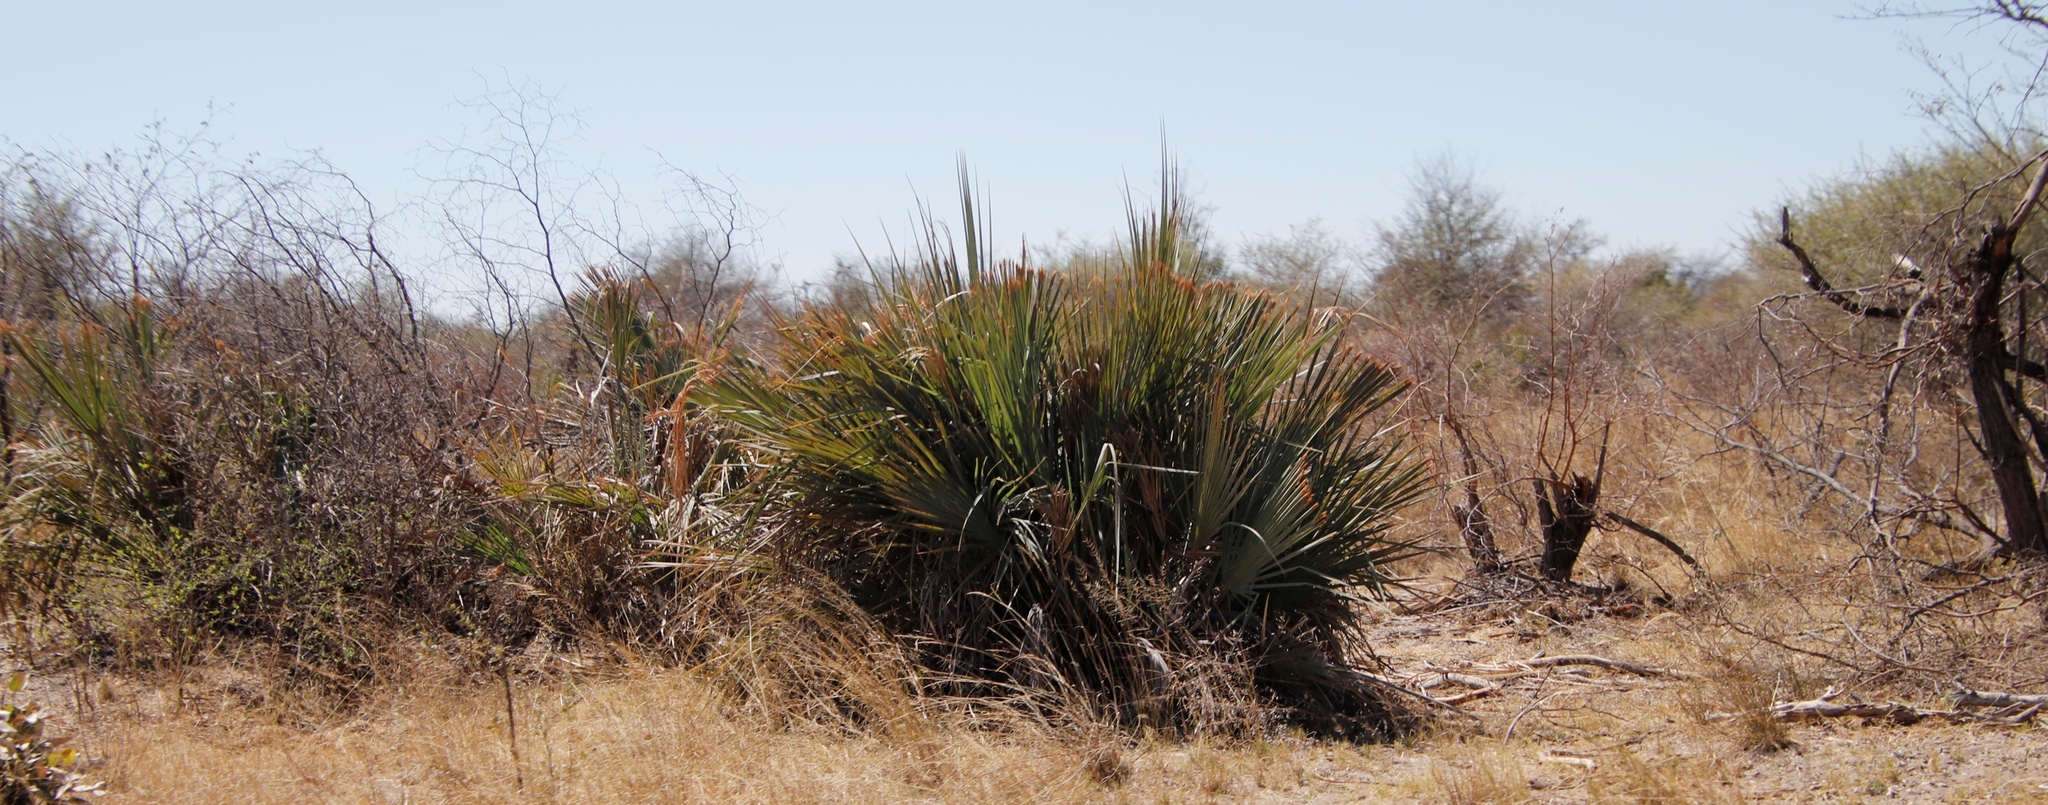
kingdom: Plantae
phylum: Tracheophyta
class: Liliopsida
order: Arecales
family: Arecaceae
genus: Hyphaene
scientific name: Hyphaene petersiana
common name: African ivory nut palm
